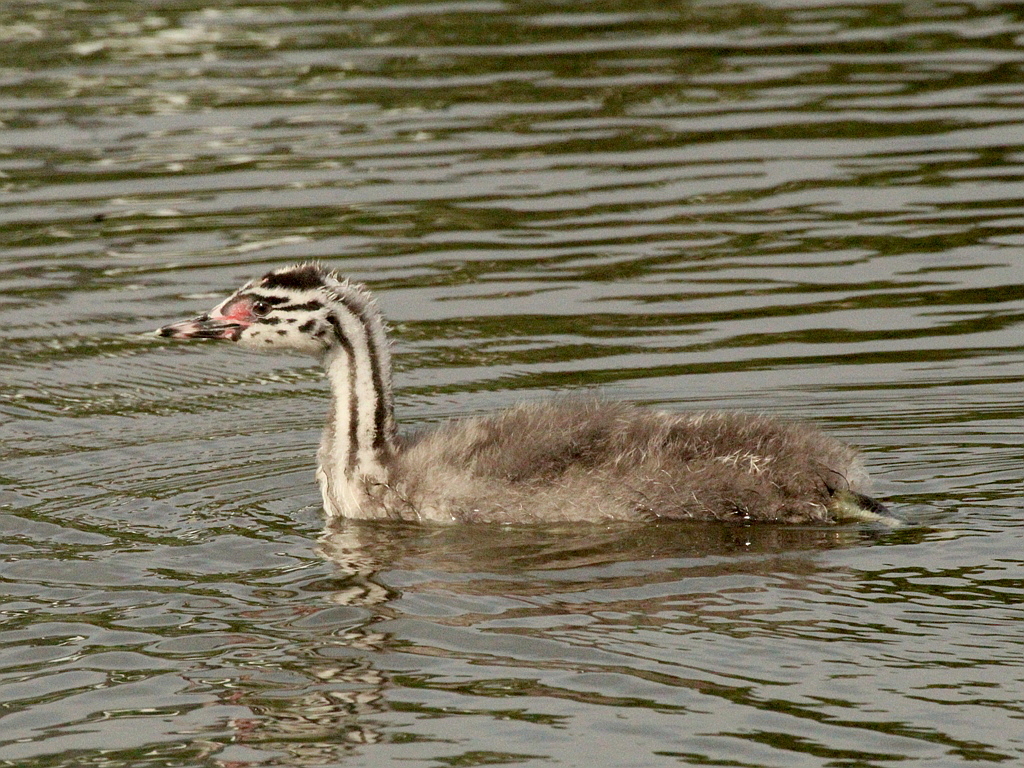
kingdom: Animalia
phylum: Chordata
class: Aves
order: Podicipediformes
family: Podicipedidae
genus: Podiceps
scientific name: Podiceps cristatus
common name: Great crested grebe
